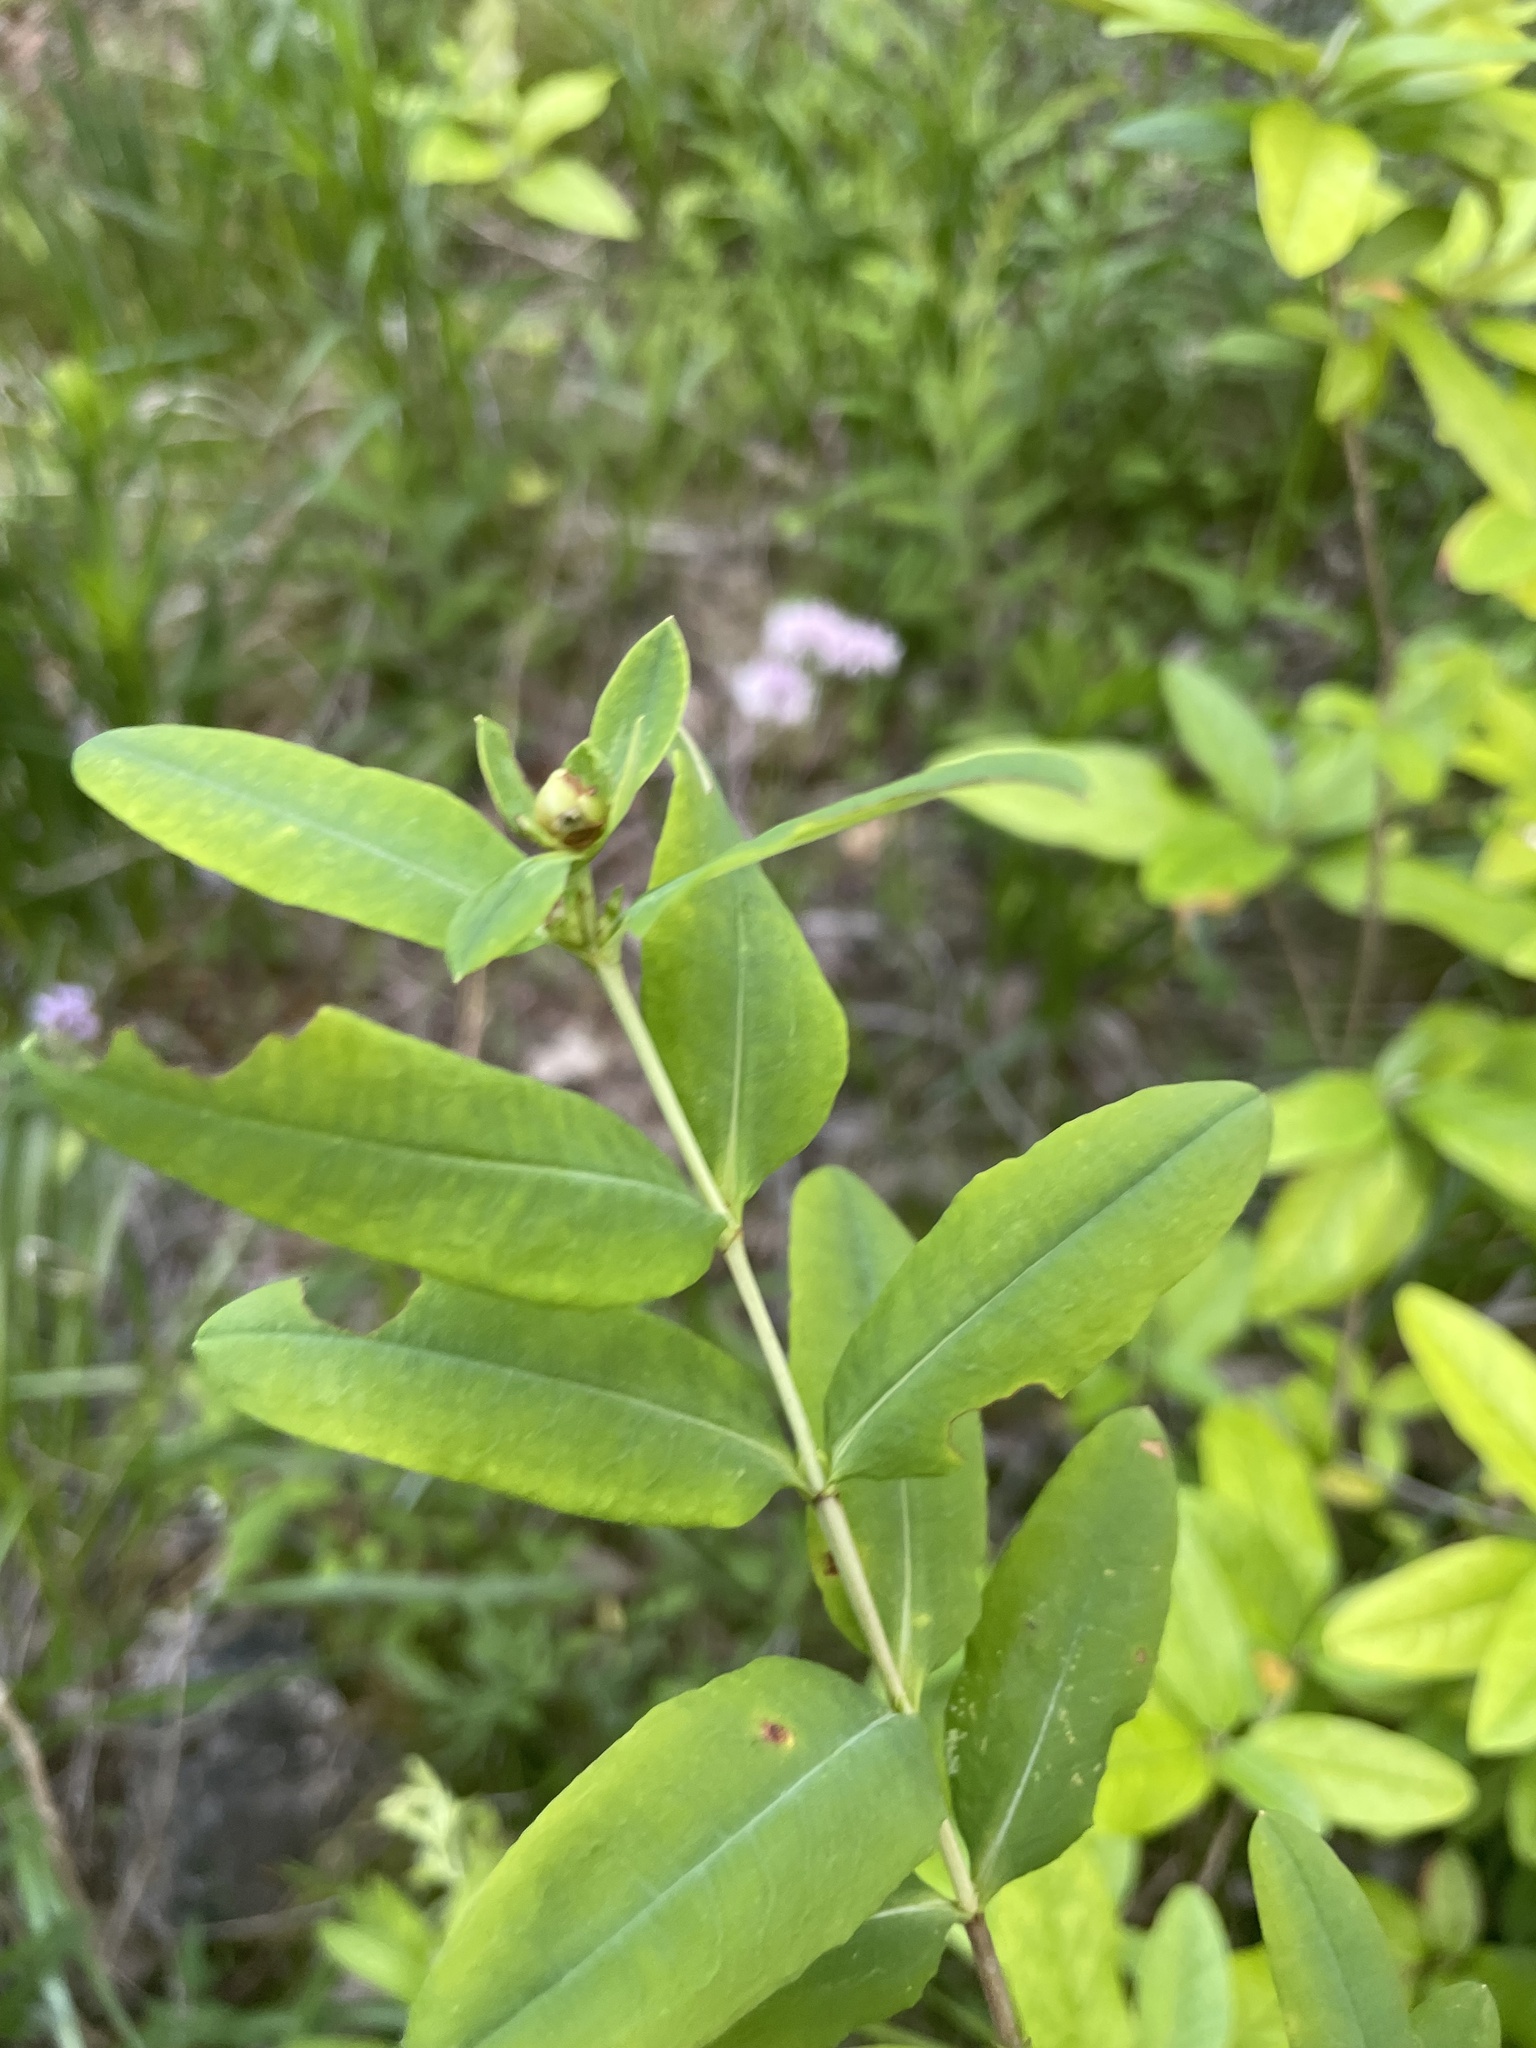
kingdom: Plantae
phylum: Tracheophyta
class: Magnoliopsida
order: Malpighiales
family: Hypericaceae
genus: Hypericum
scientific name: Hypericum frondosum
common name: Golden st. john's-wort
